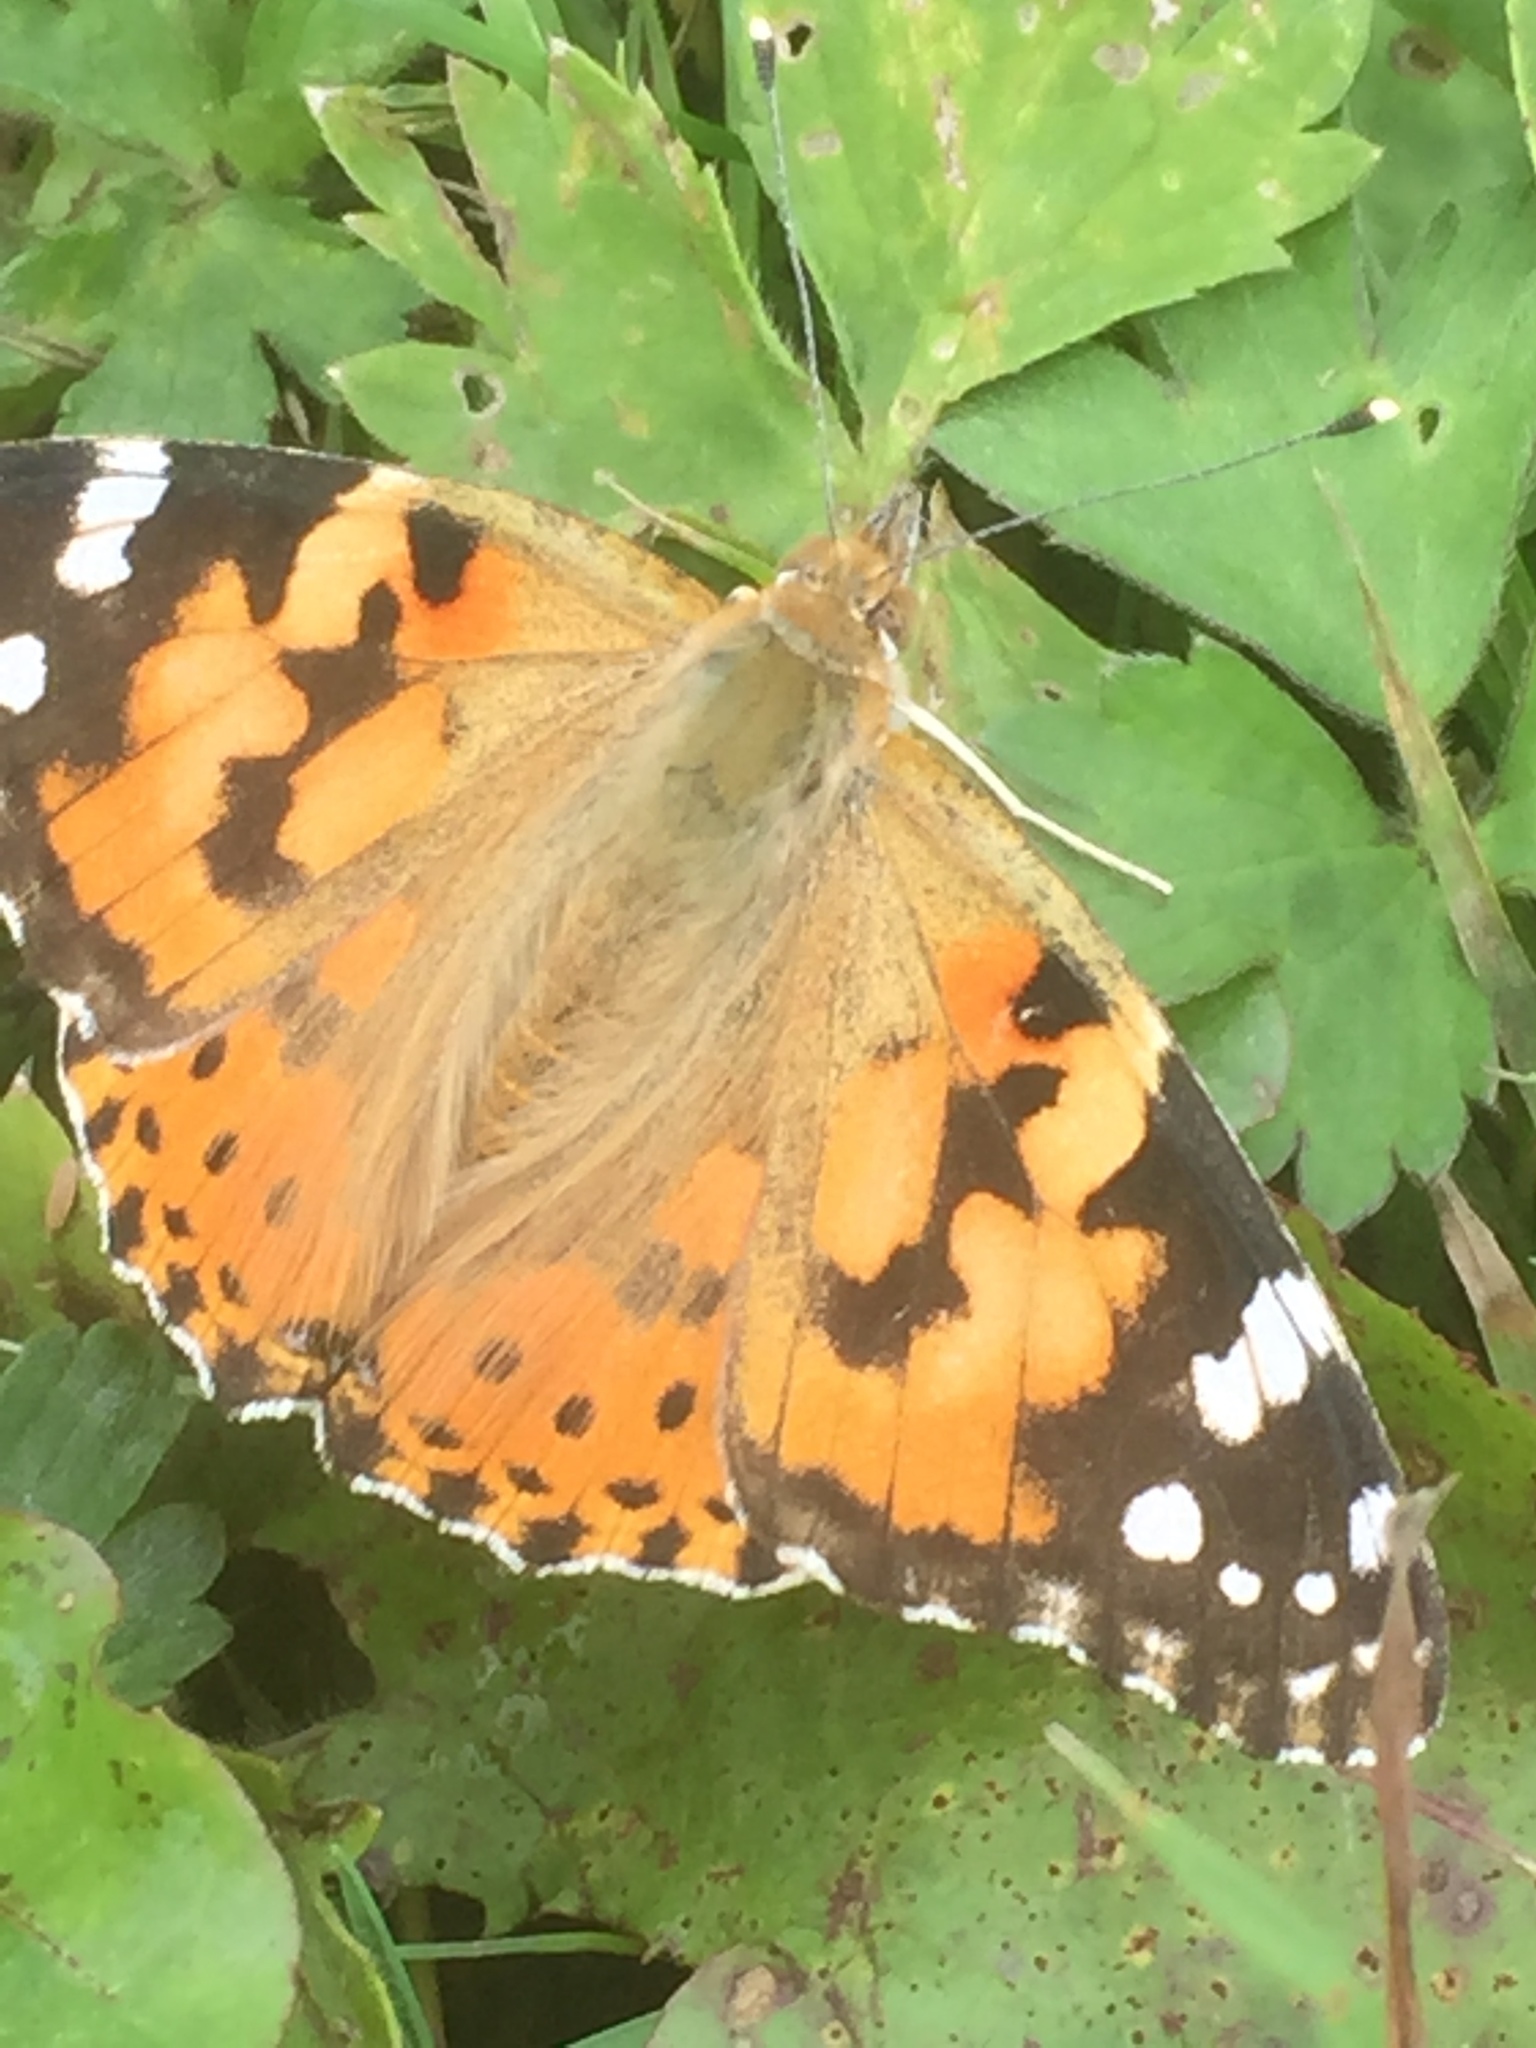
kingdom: Animalia
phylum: Arthropoda
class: Insecta
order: Lepidoptera
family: Nymphalidae
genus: Vanessa
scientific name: Vanessa cardui
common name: Painted lady
